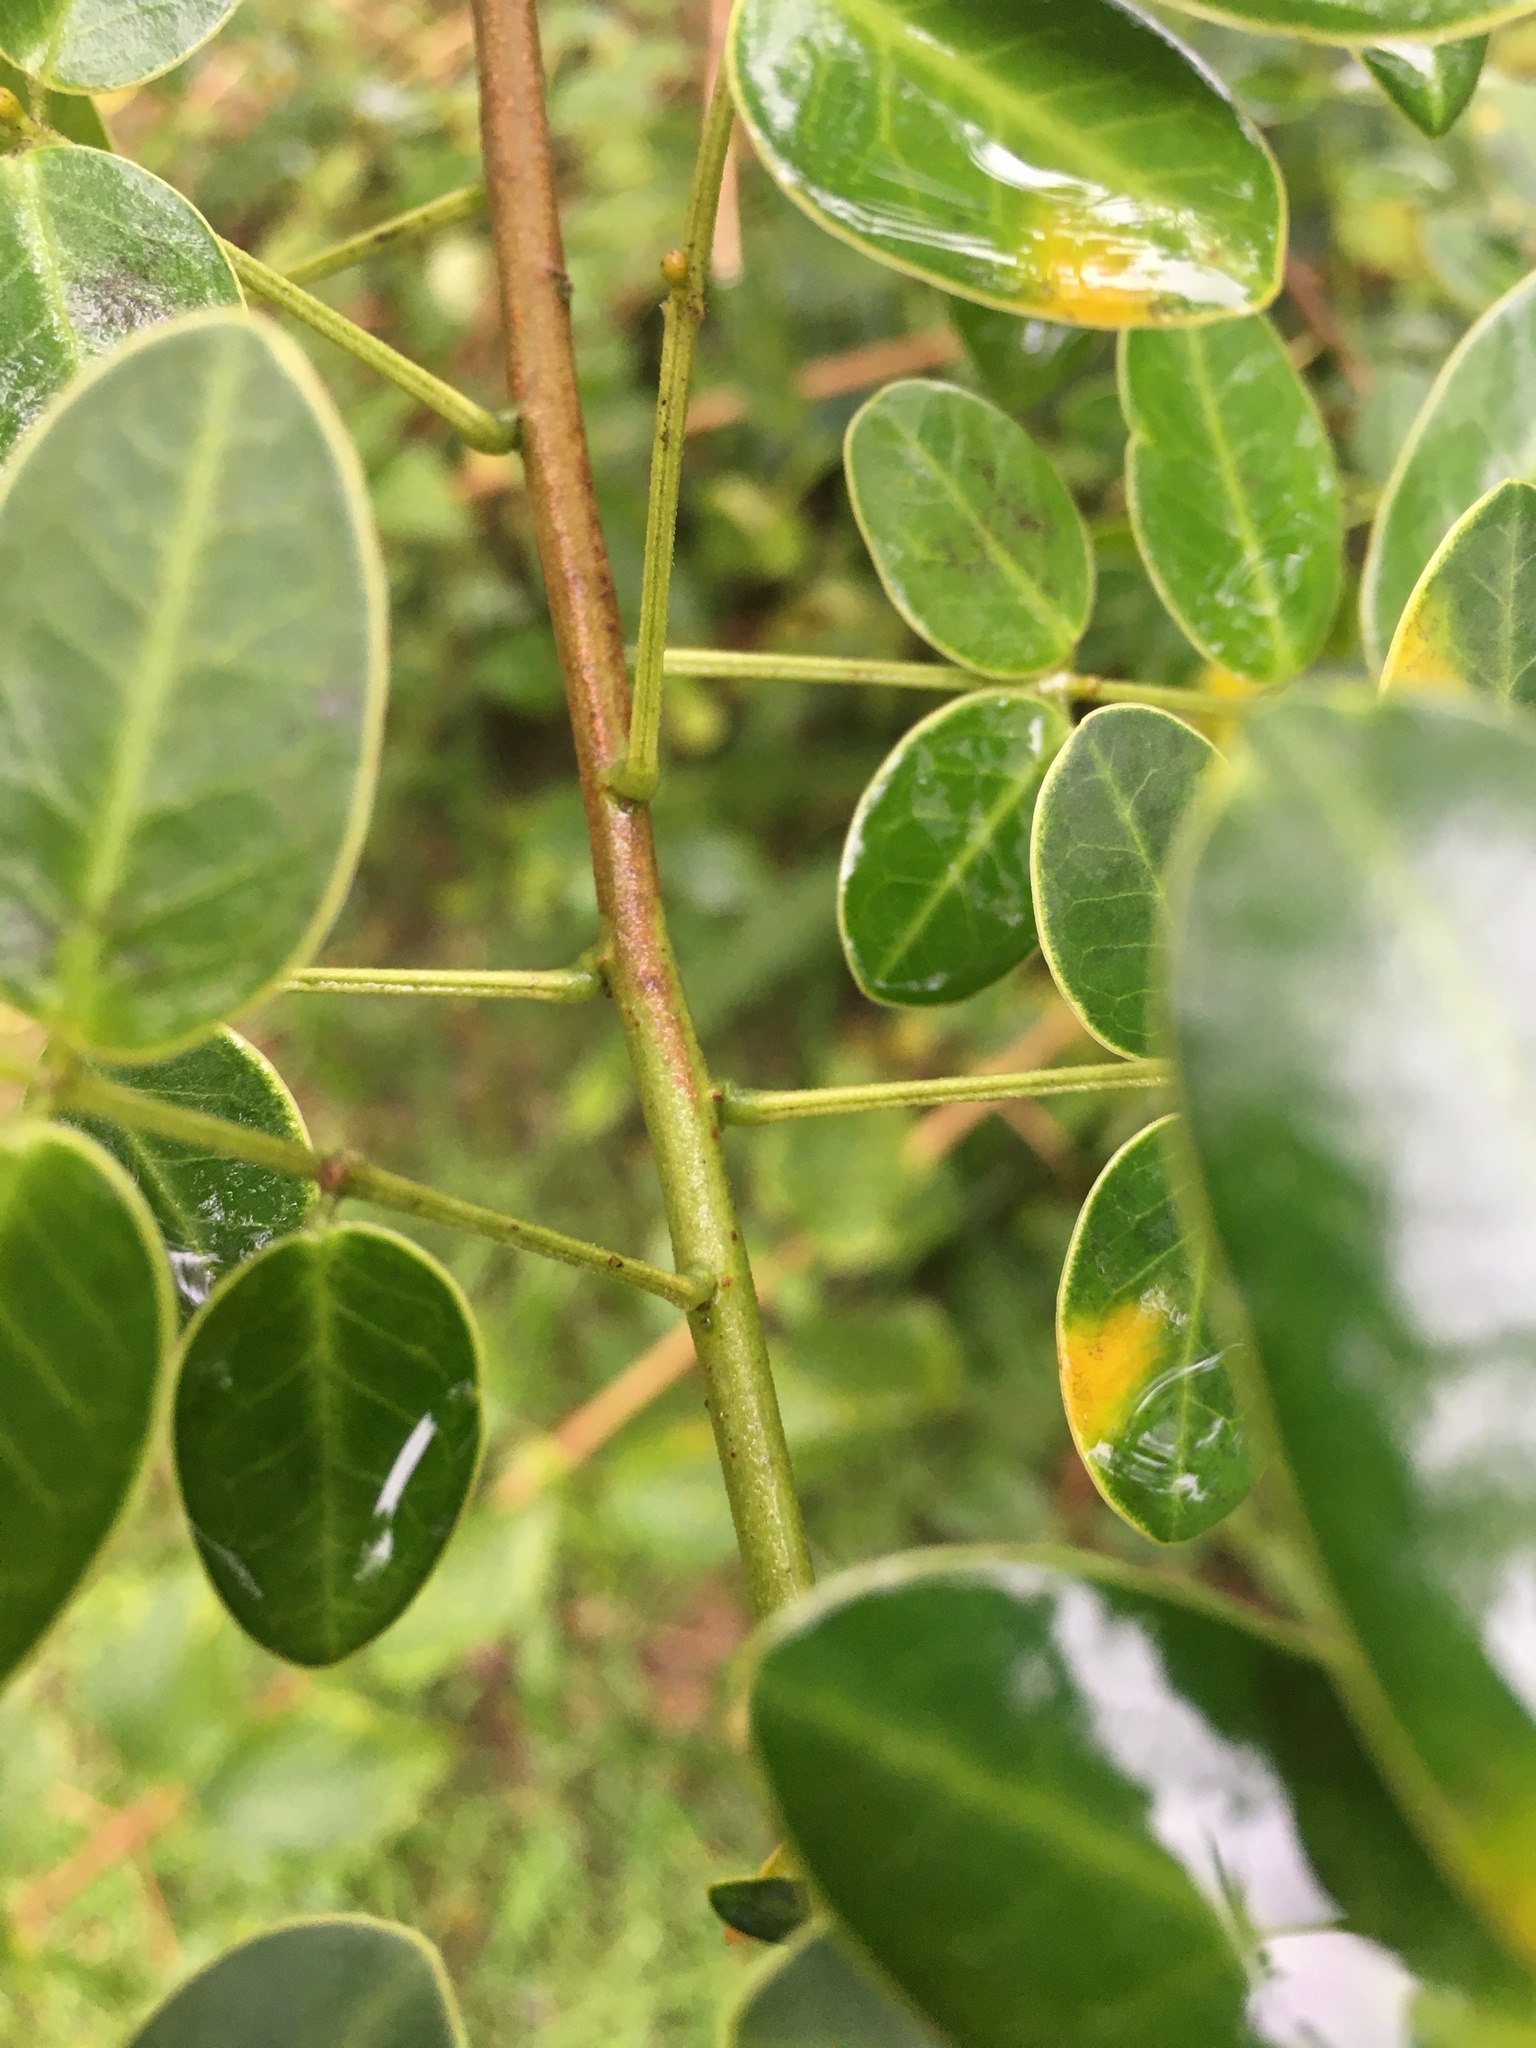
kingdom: Plantae
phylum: Tracheophyta
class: Magnoliopsida
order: Fabales
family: Fabaceae
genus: Senna
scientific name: Senna pendula
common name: Easter cassia
